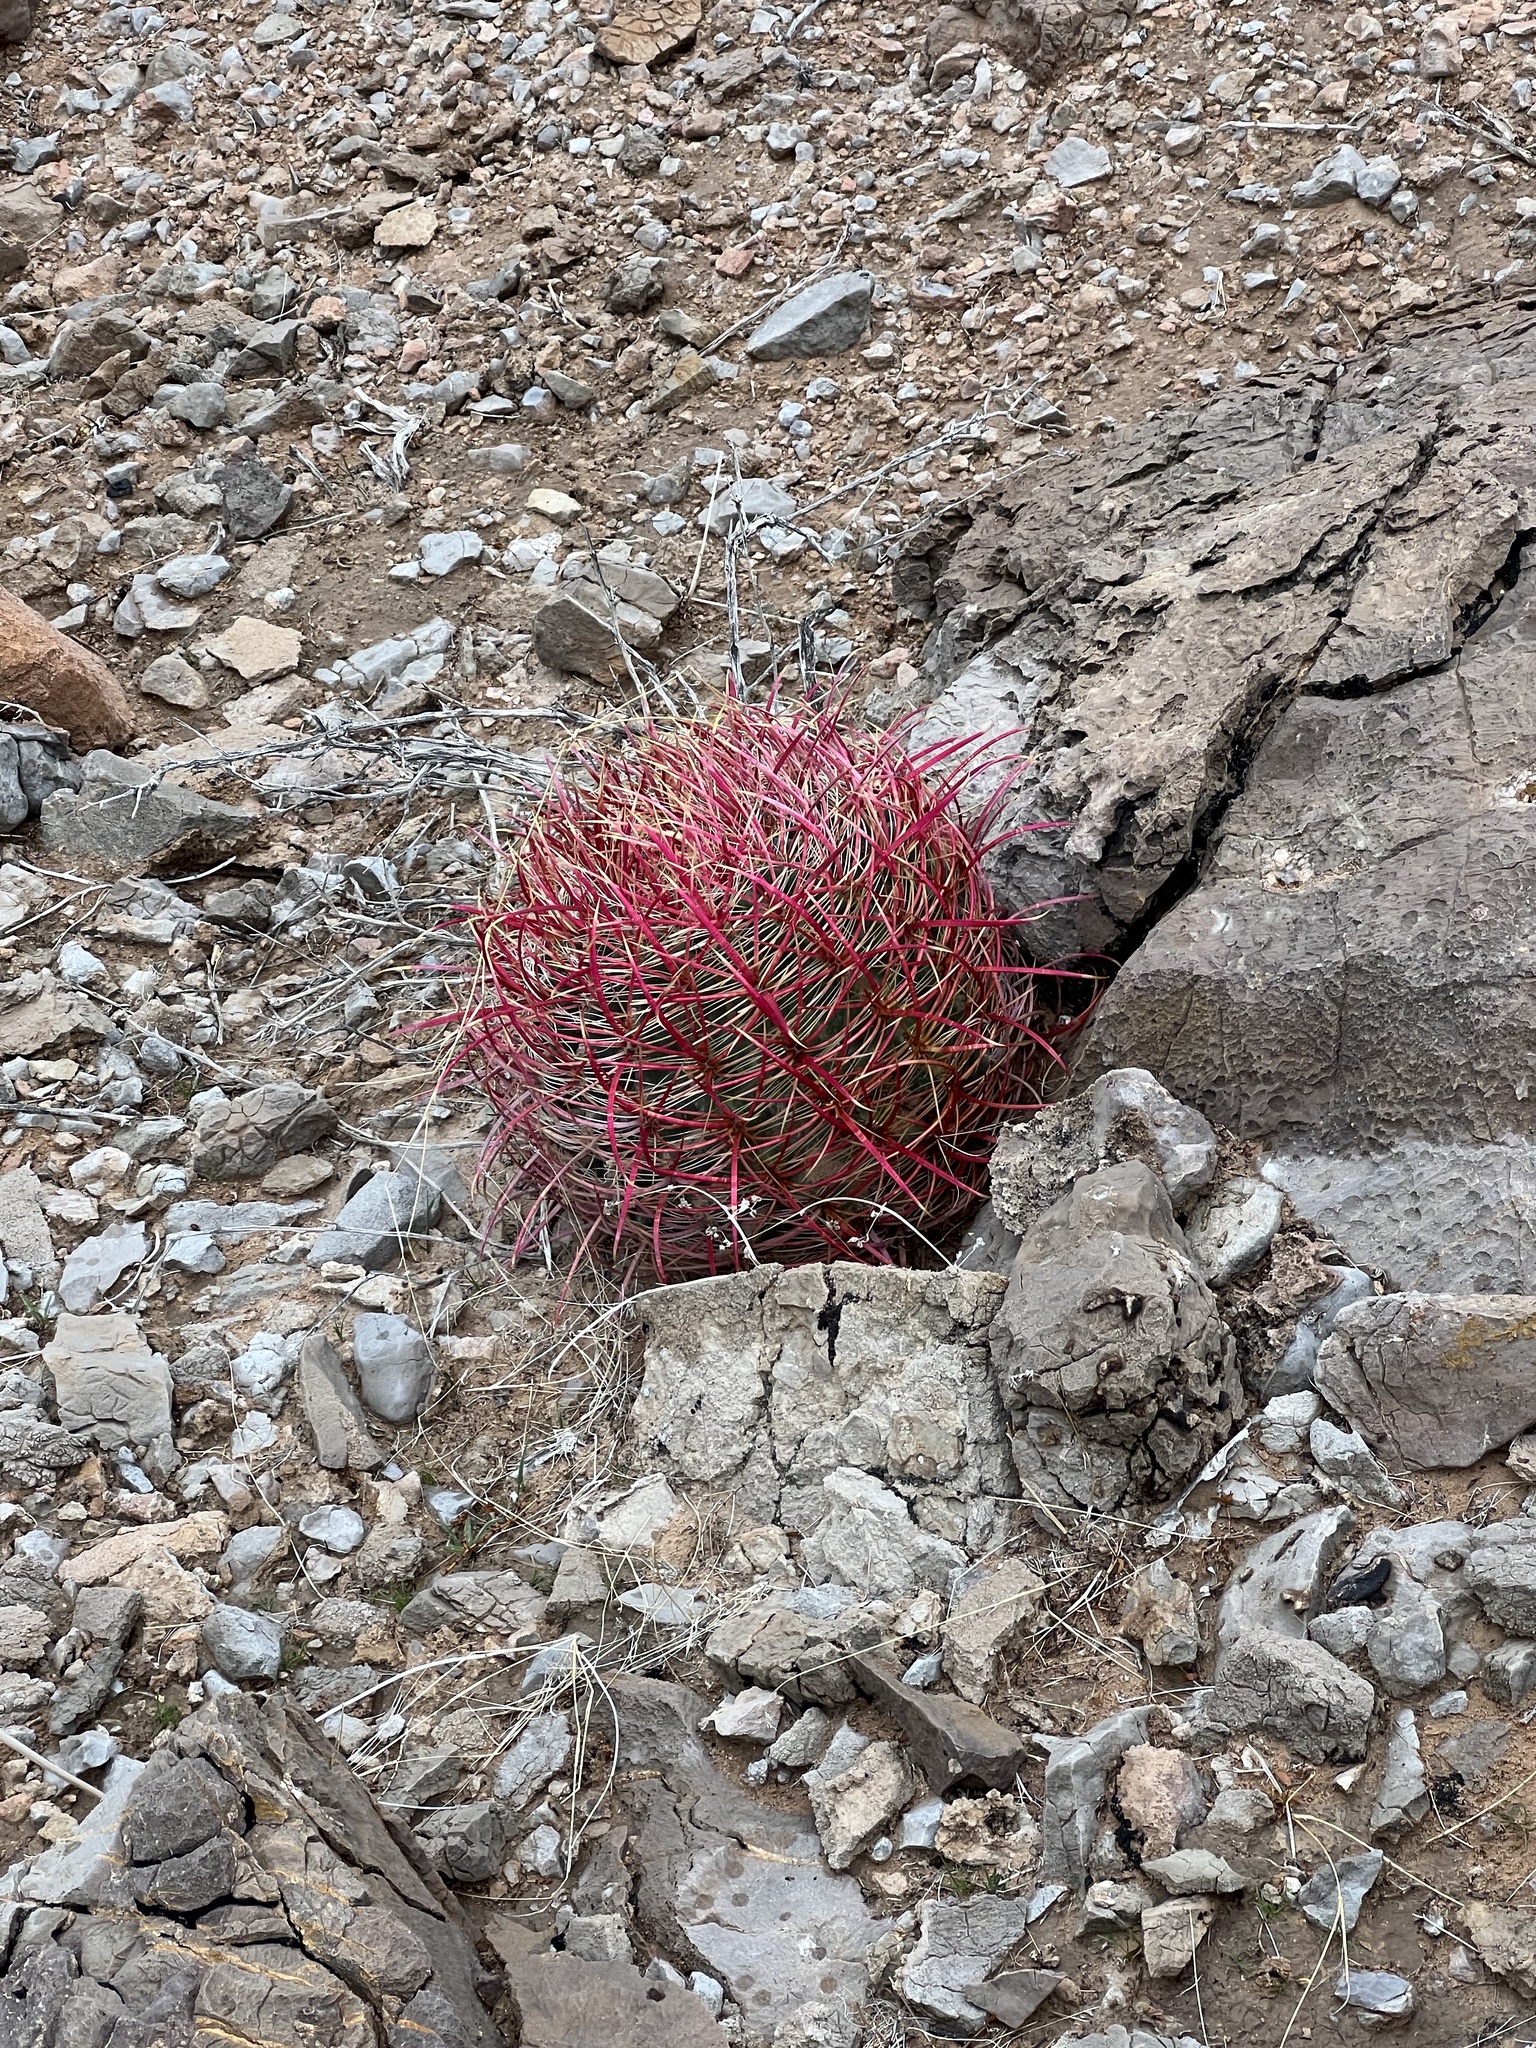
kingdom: Plantae
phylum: Tracheophyta
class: Magnoliopsida
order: Caryophyllales
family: Cactaceae
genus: Ferocactus
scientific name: Ferocactus cylindraceus
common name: California barrel cactus
